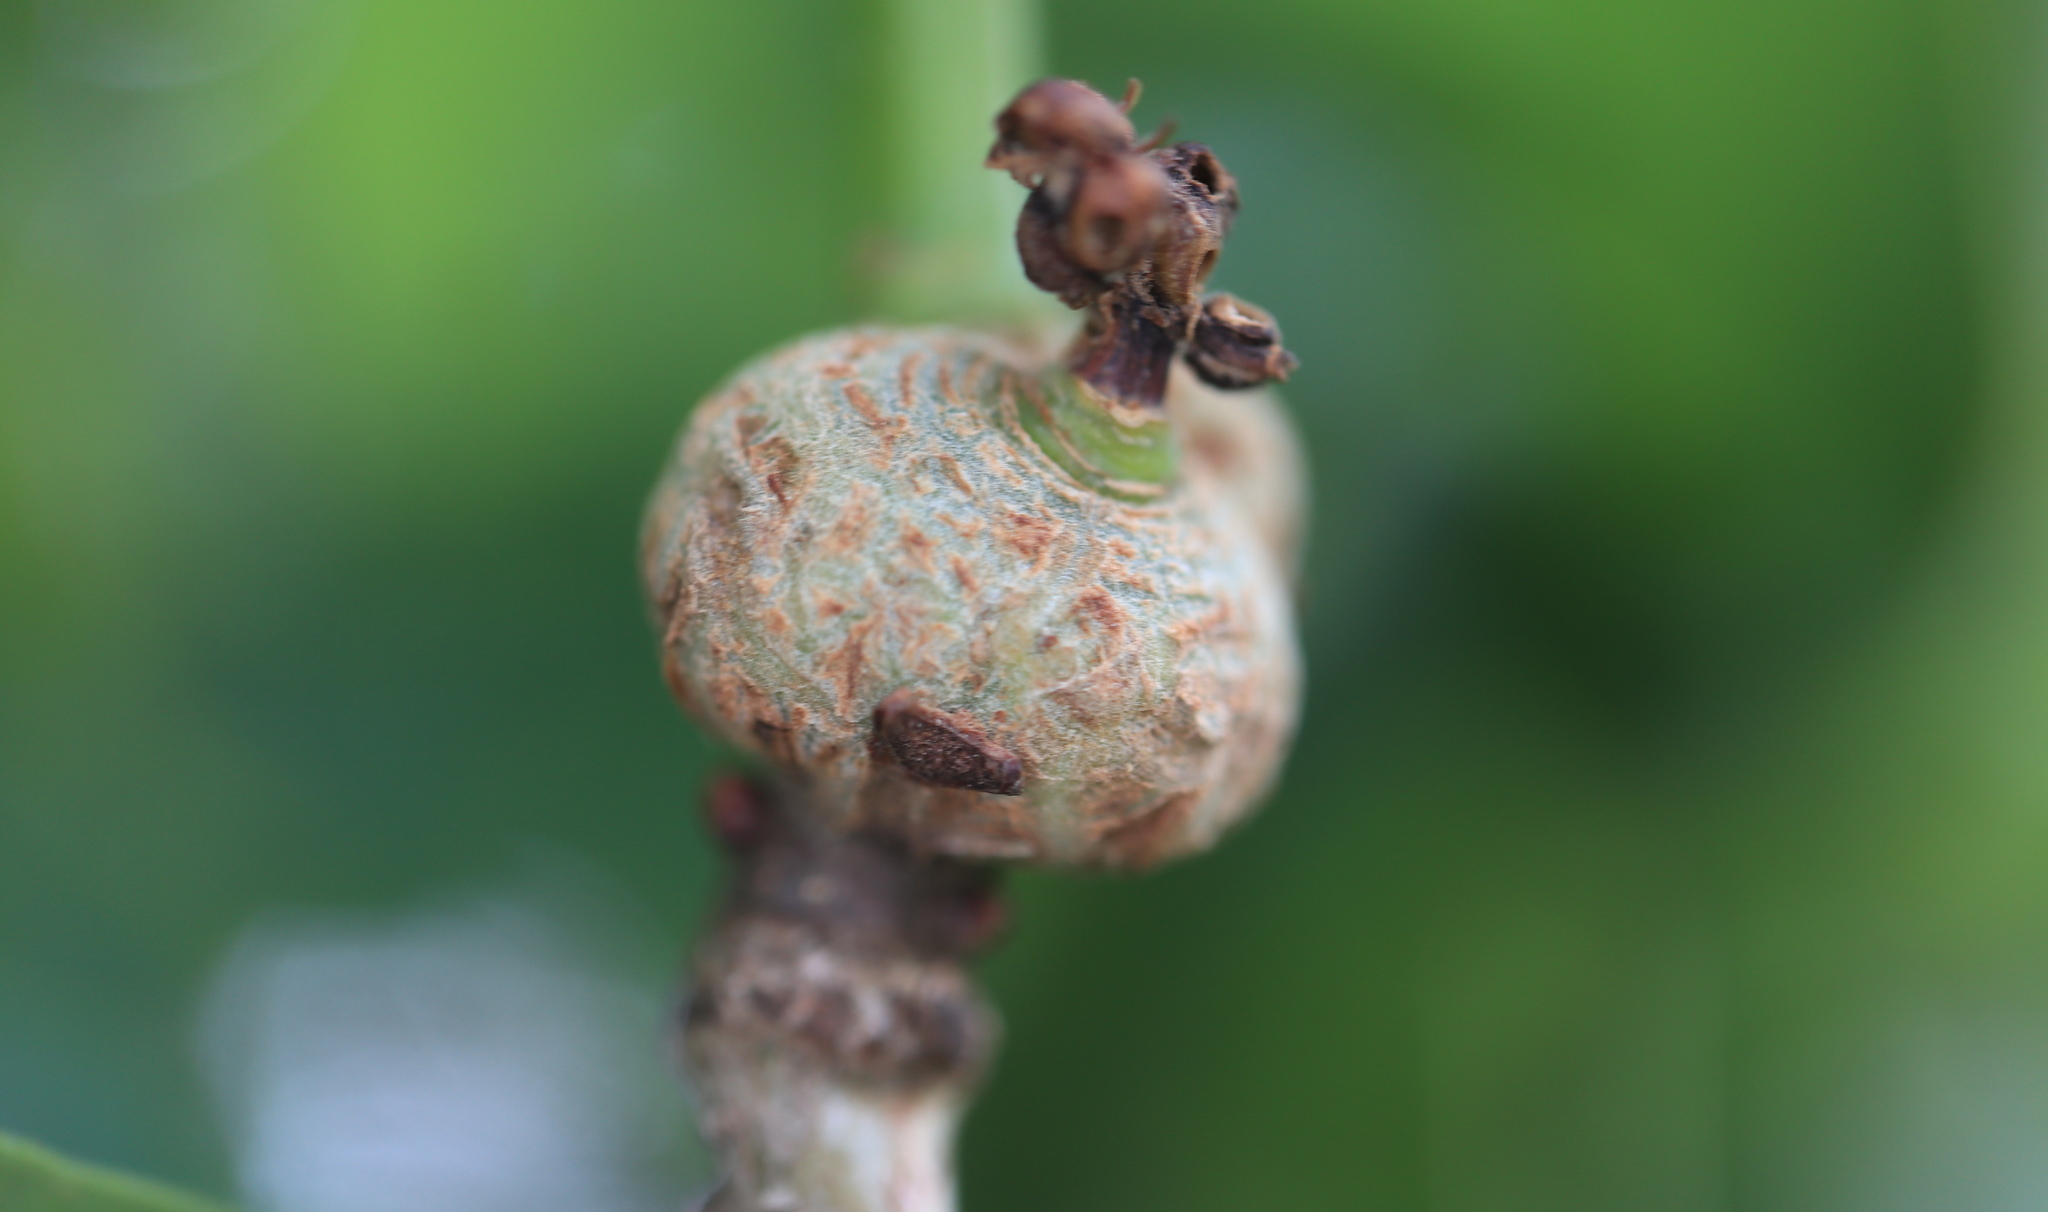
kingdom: Animalia
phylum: Arthropoda
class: Insecta
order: Hymenoptera
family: Cynipidae
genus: Loxaulus
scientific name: Loxaulus
